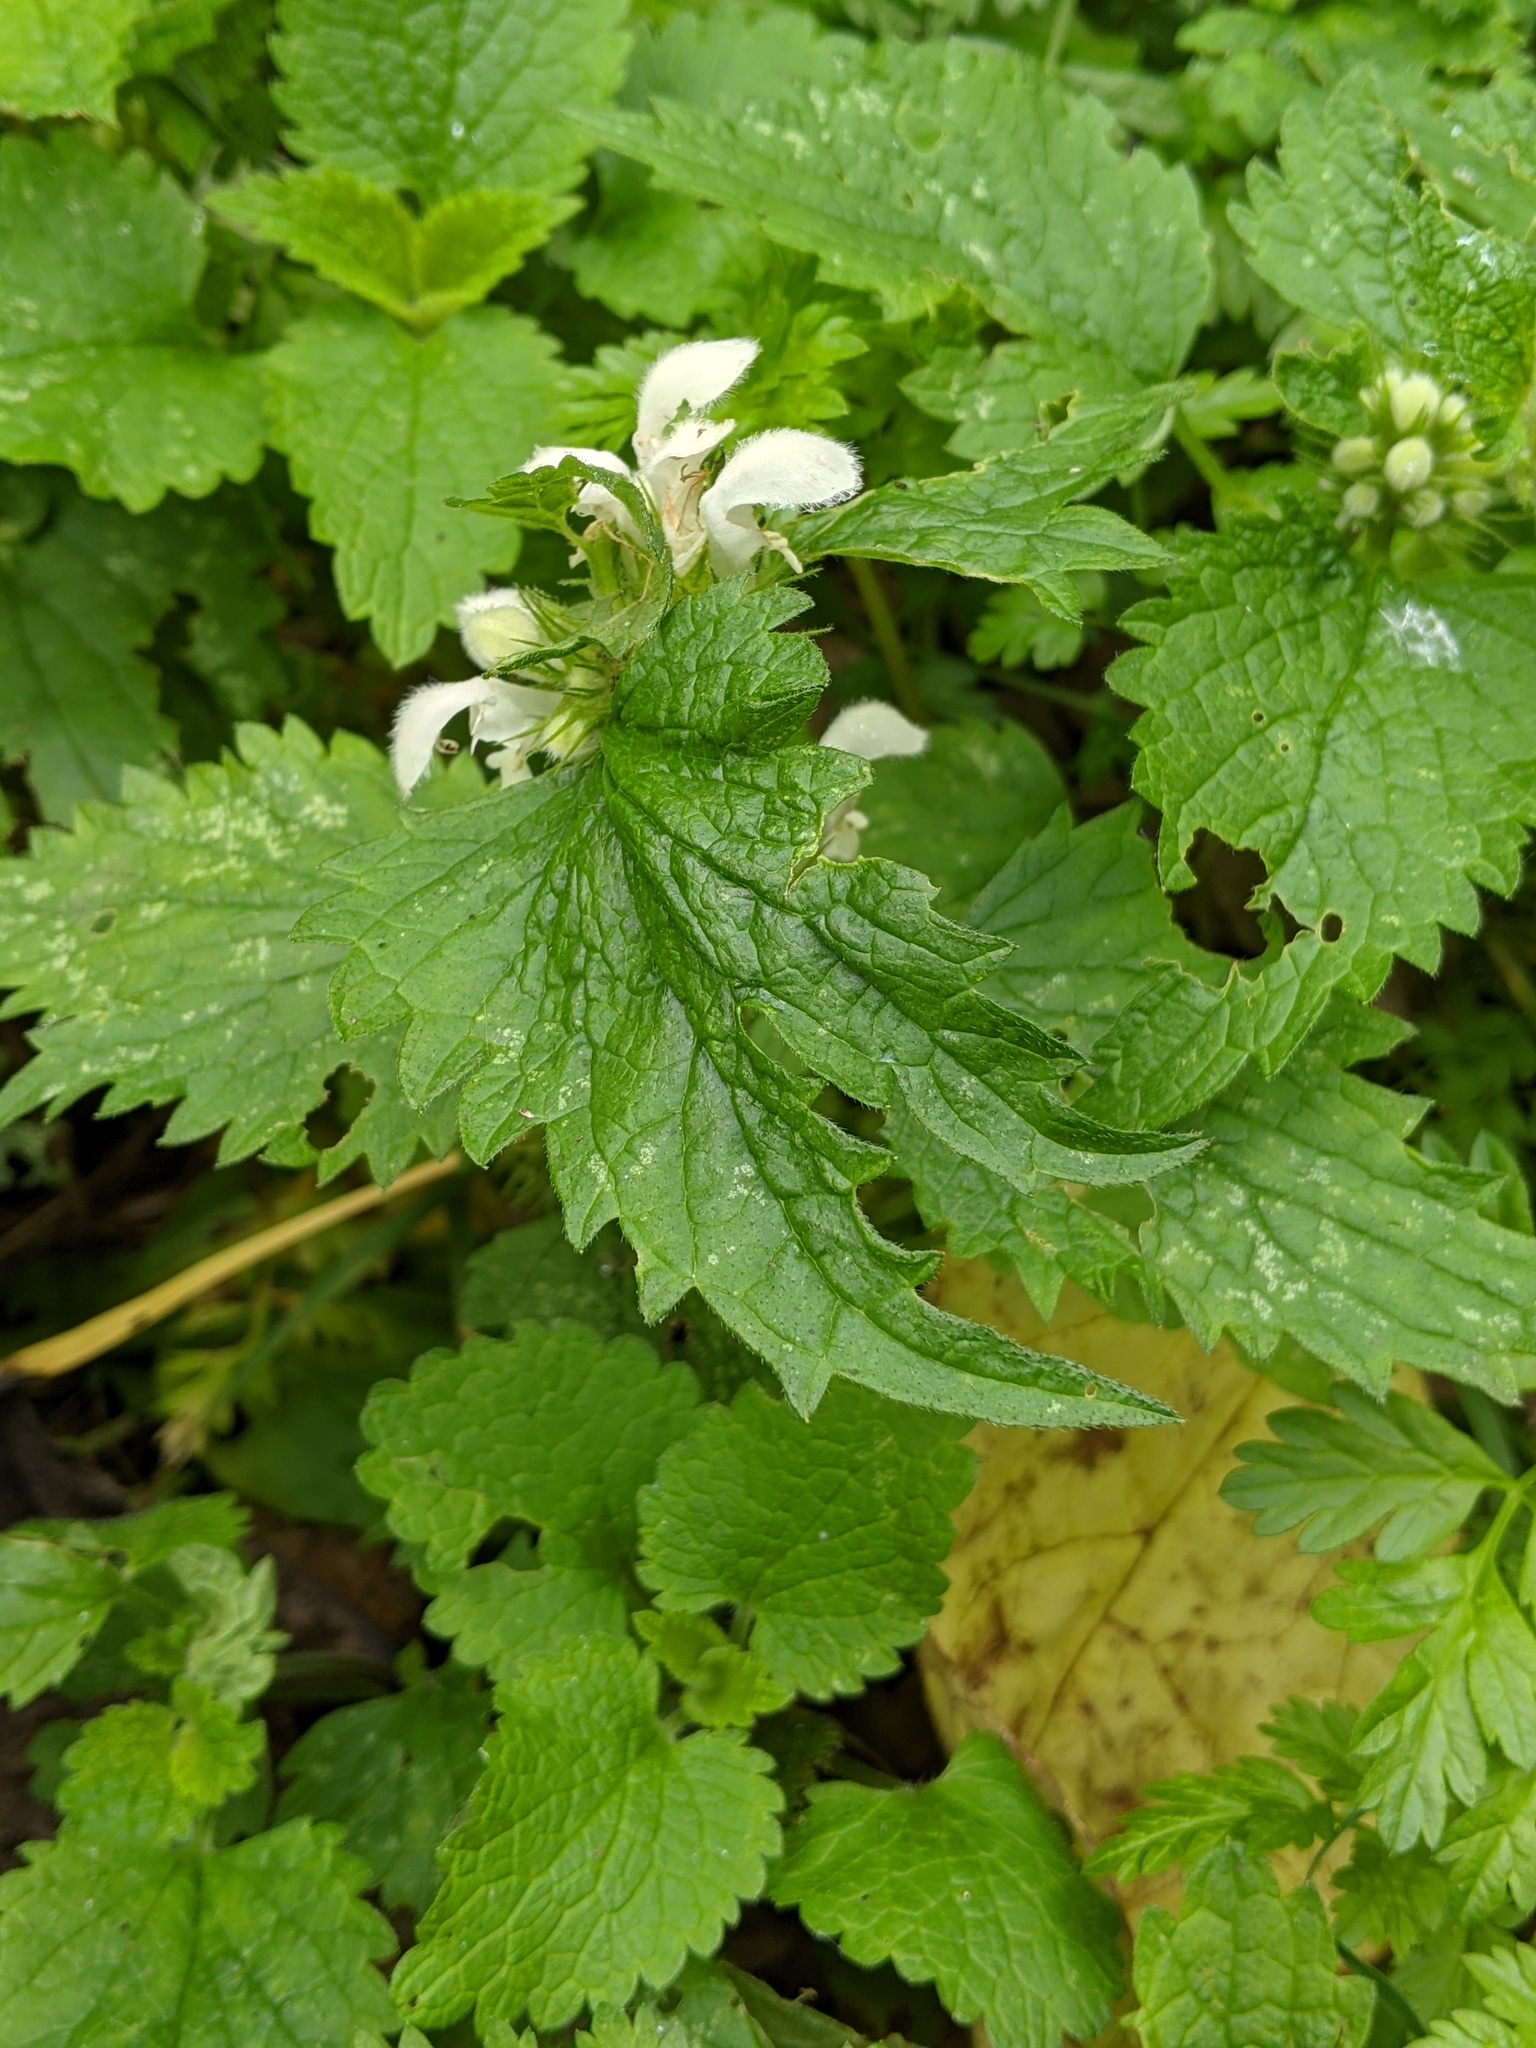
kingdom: Plantae
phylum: Tracheophyta
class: Magnoliopsida
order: Lamiales
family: Lamiaceae
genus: Lamium
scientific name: Lamium album
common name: White dead-nettle
